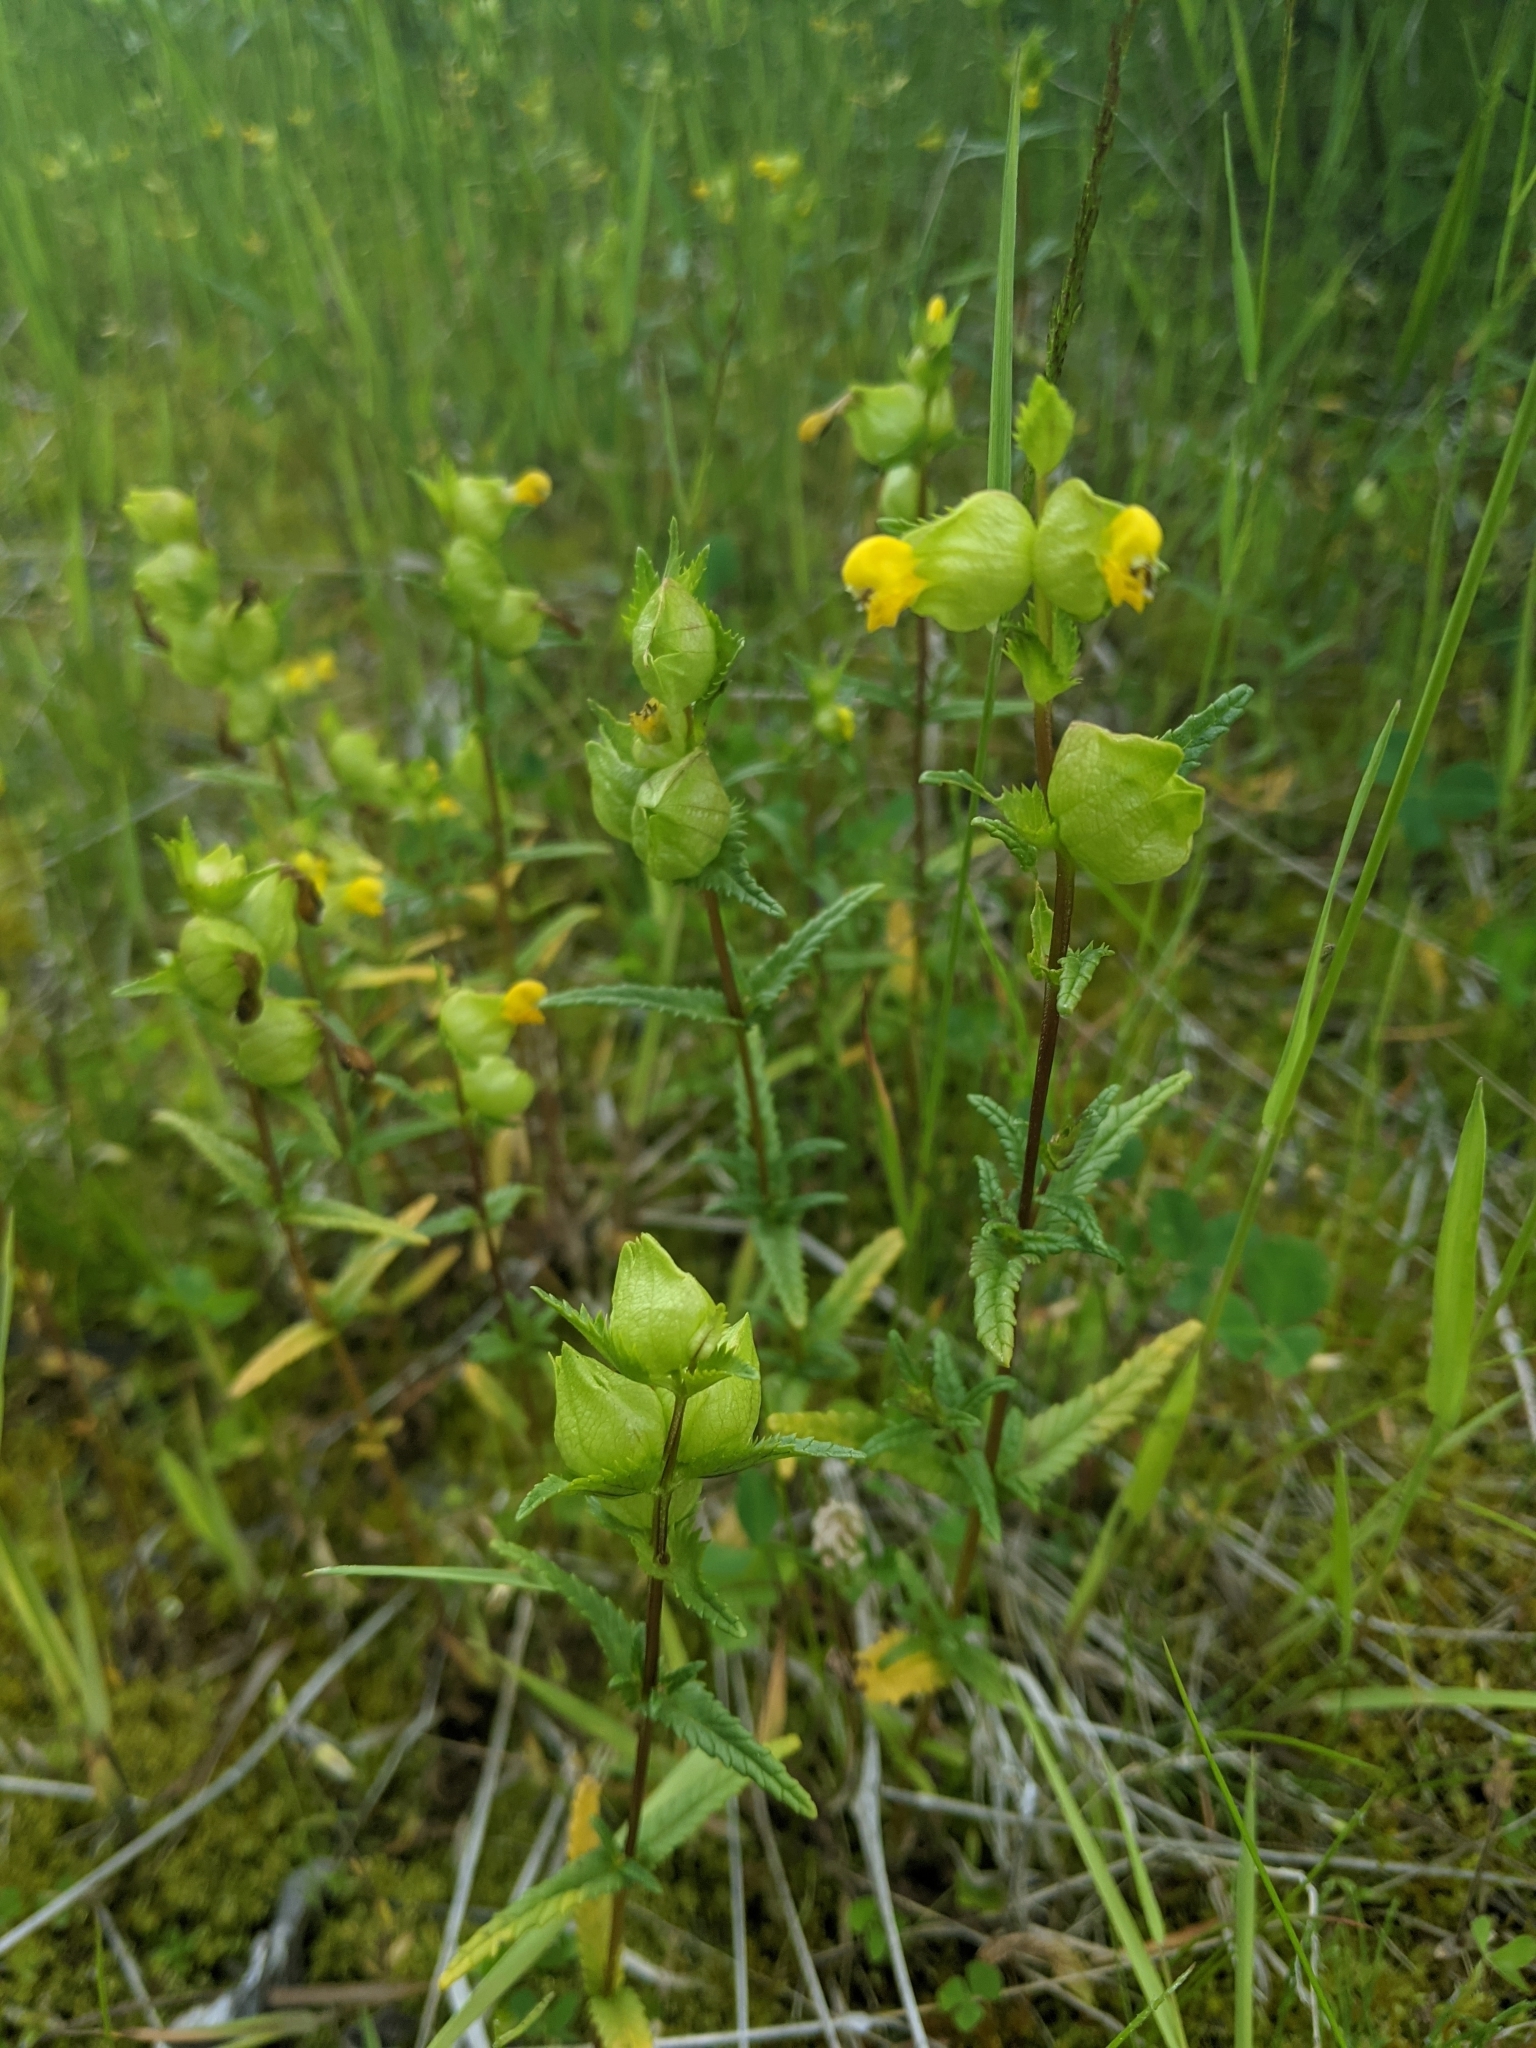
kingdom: Plantae
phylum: Tracheophyta
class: Magnoliopsida
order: Lamiales
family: Orobanchaceae
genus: Rhinanthus
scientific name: Rhinanthus groenlandicus
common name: Little yellow rattle
